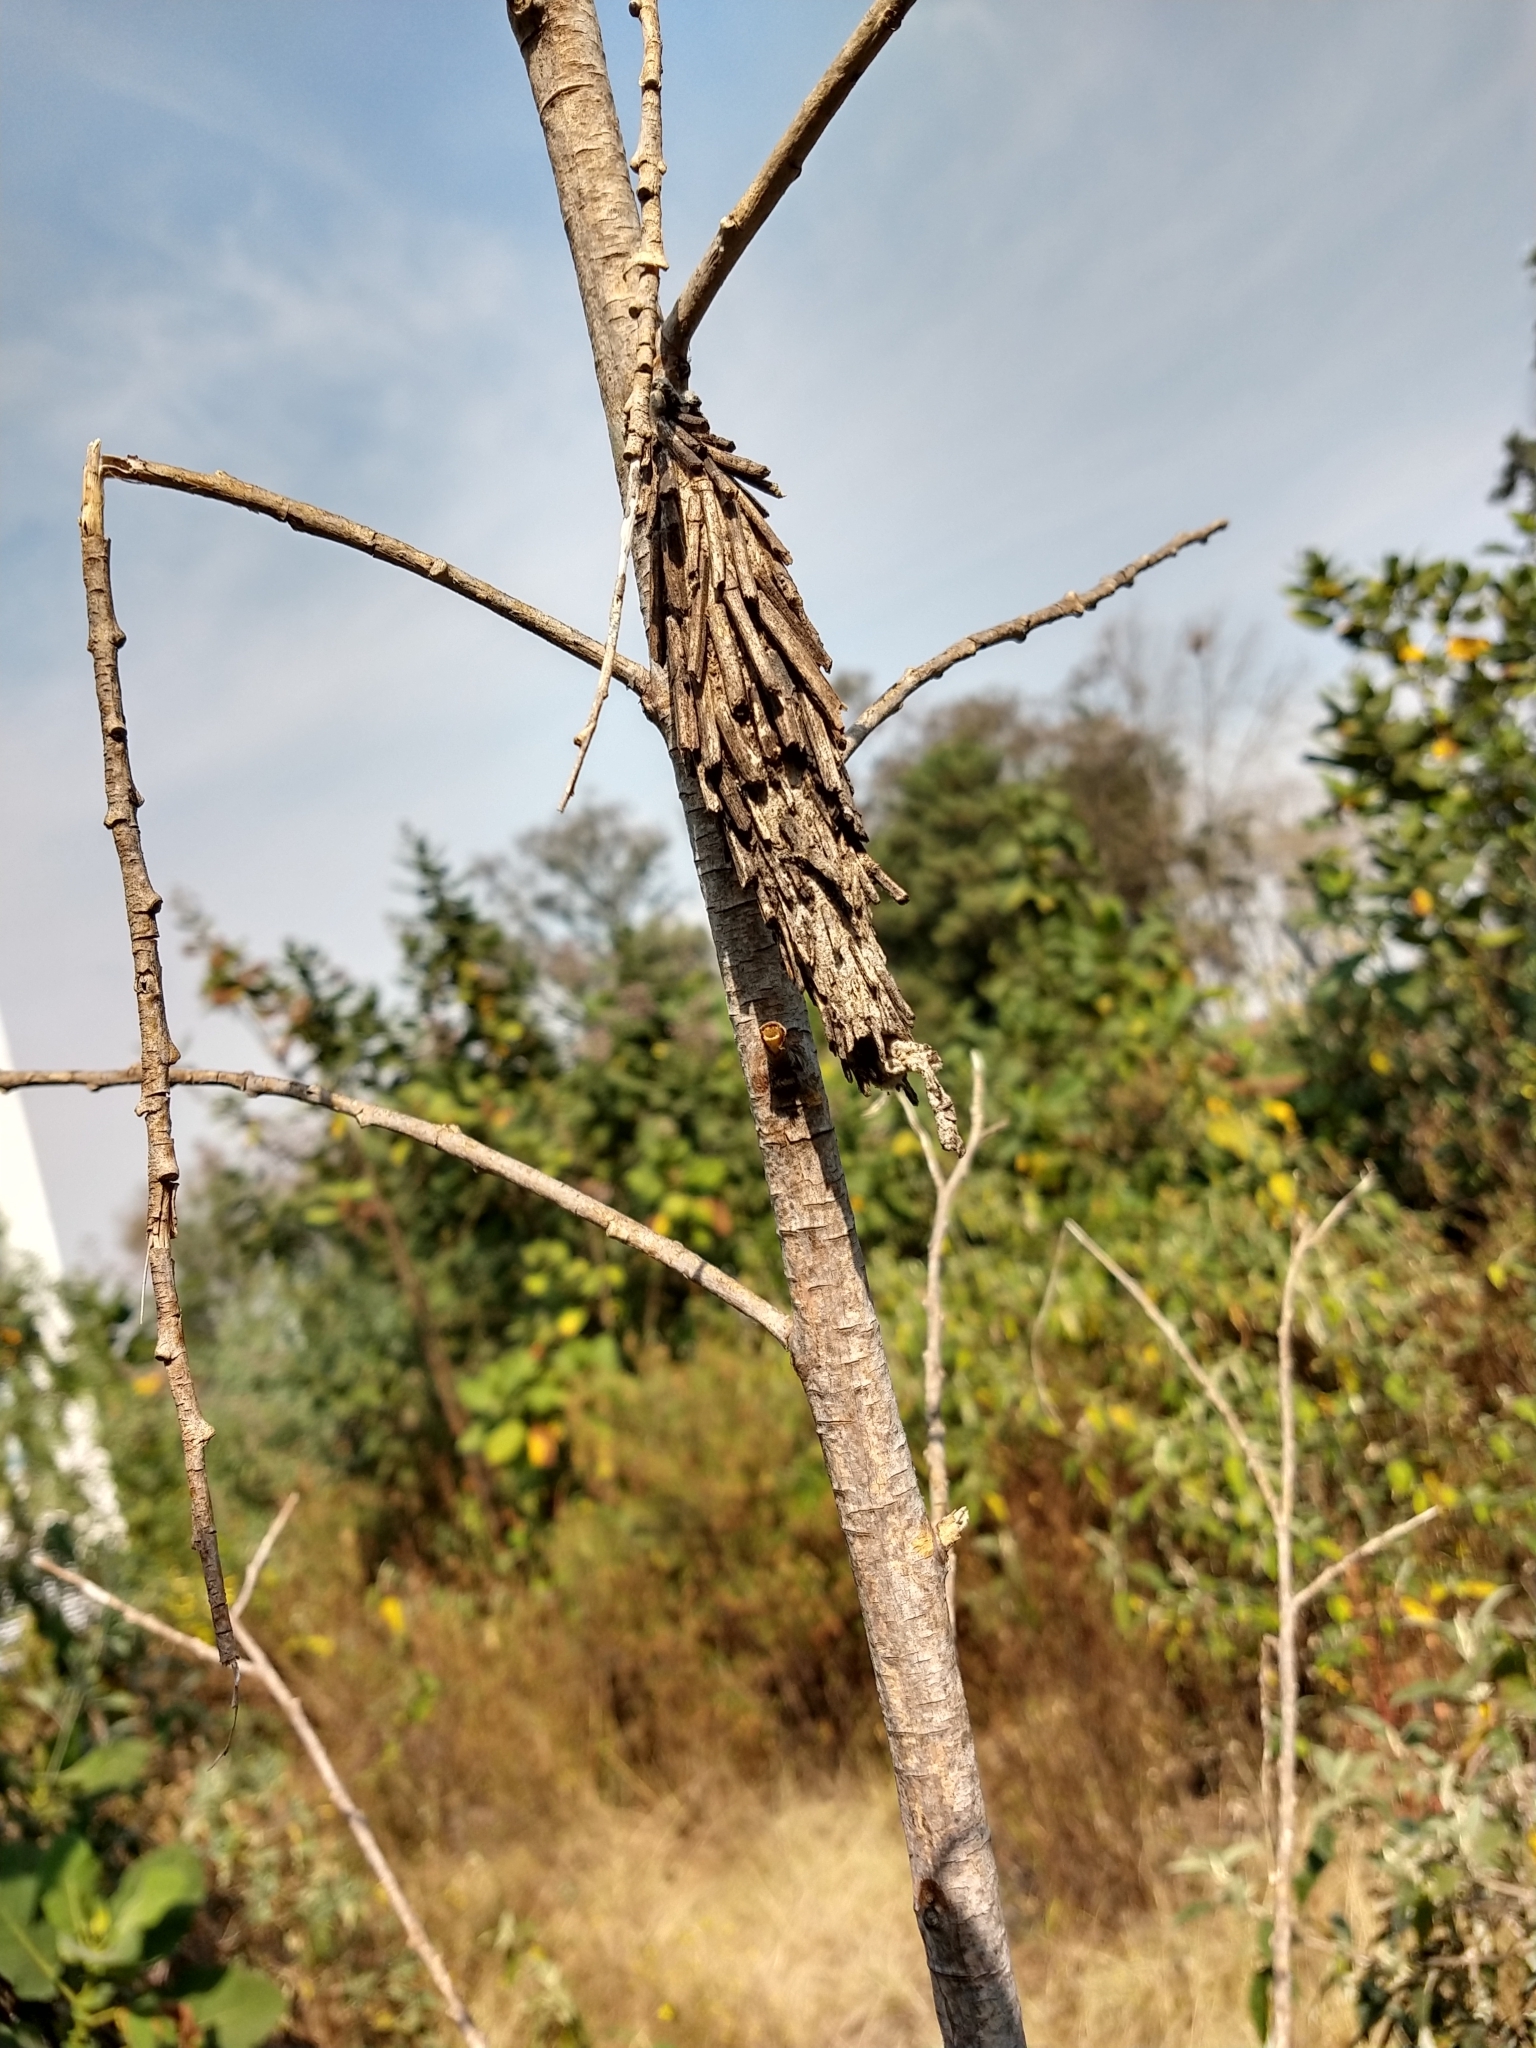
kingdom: Animalia
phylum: Arthropoda
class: Insecta
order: Lepidoptera
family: Psychidae
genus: Oiketicus
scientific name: Oiketicus townsendi
